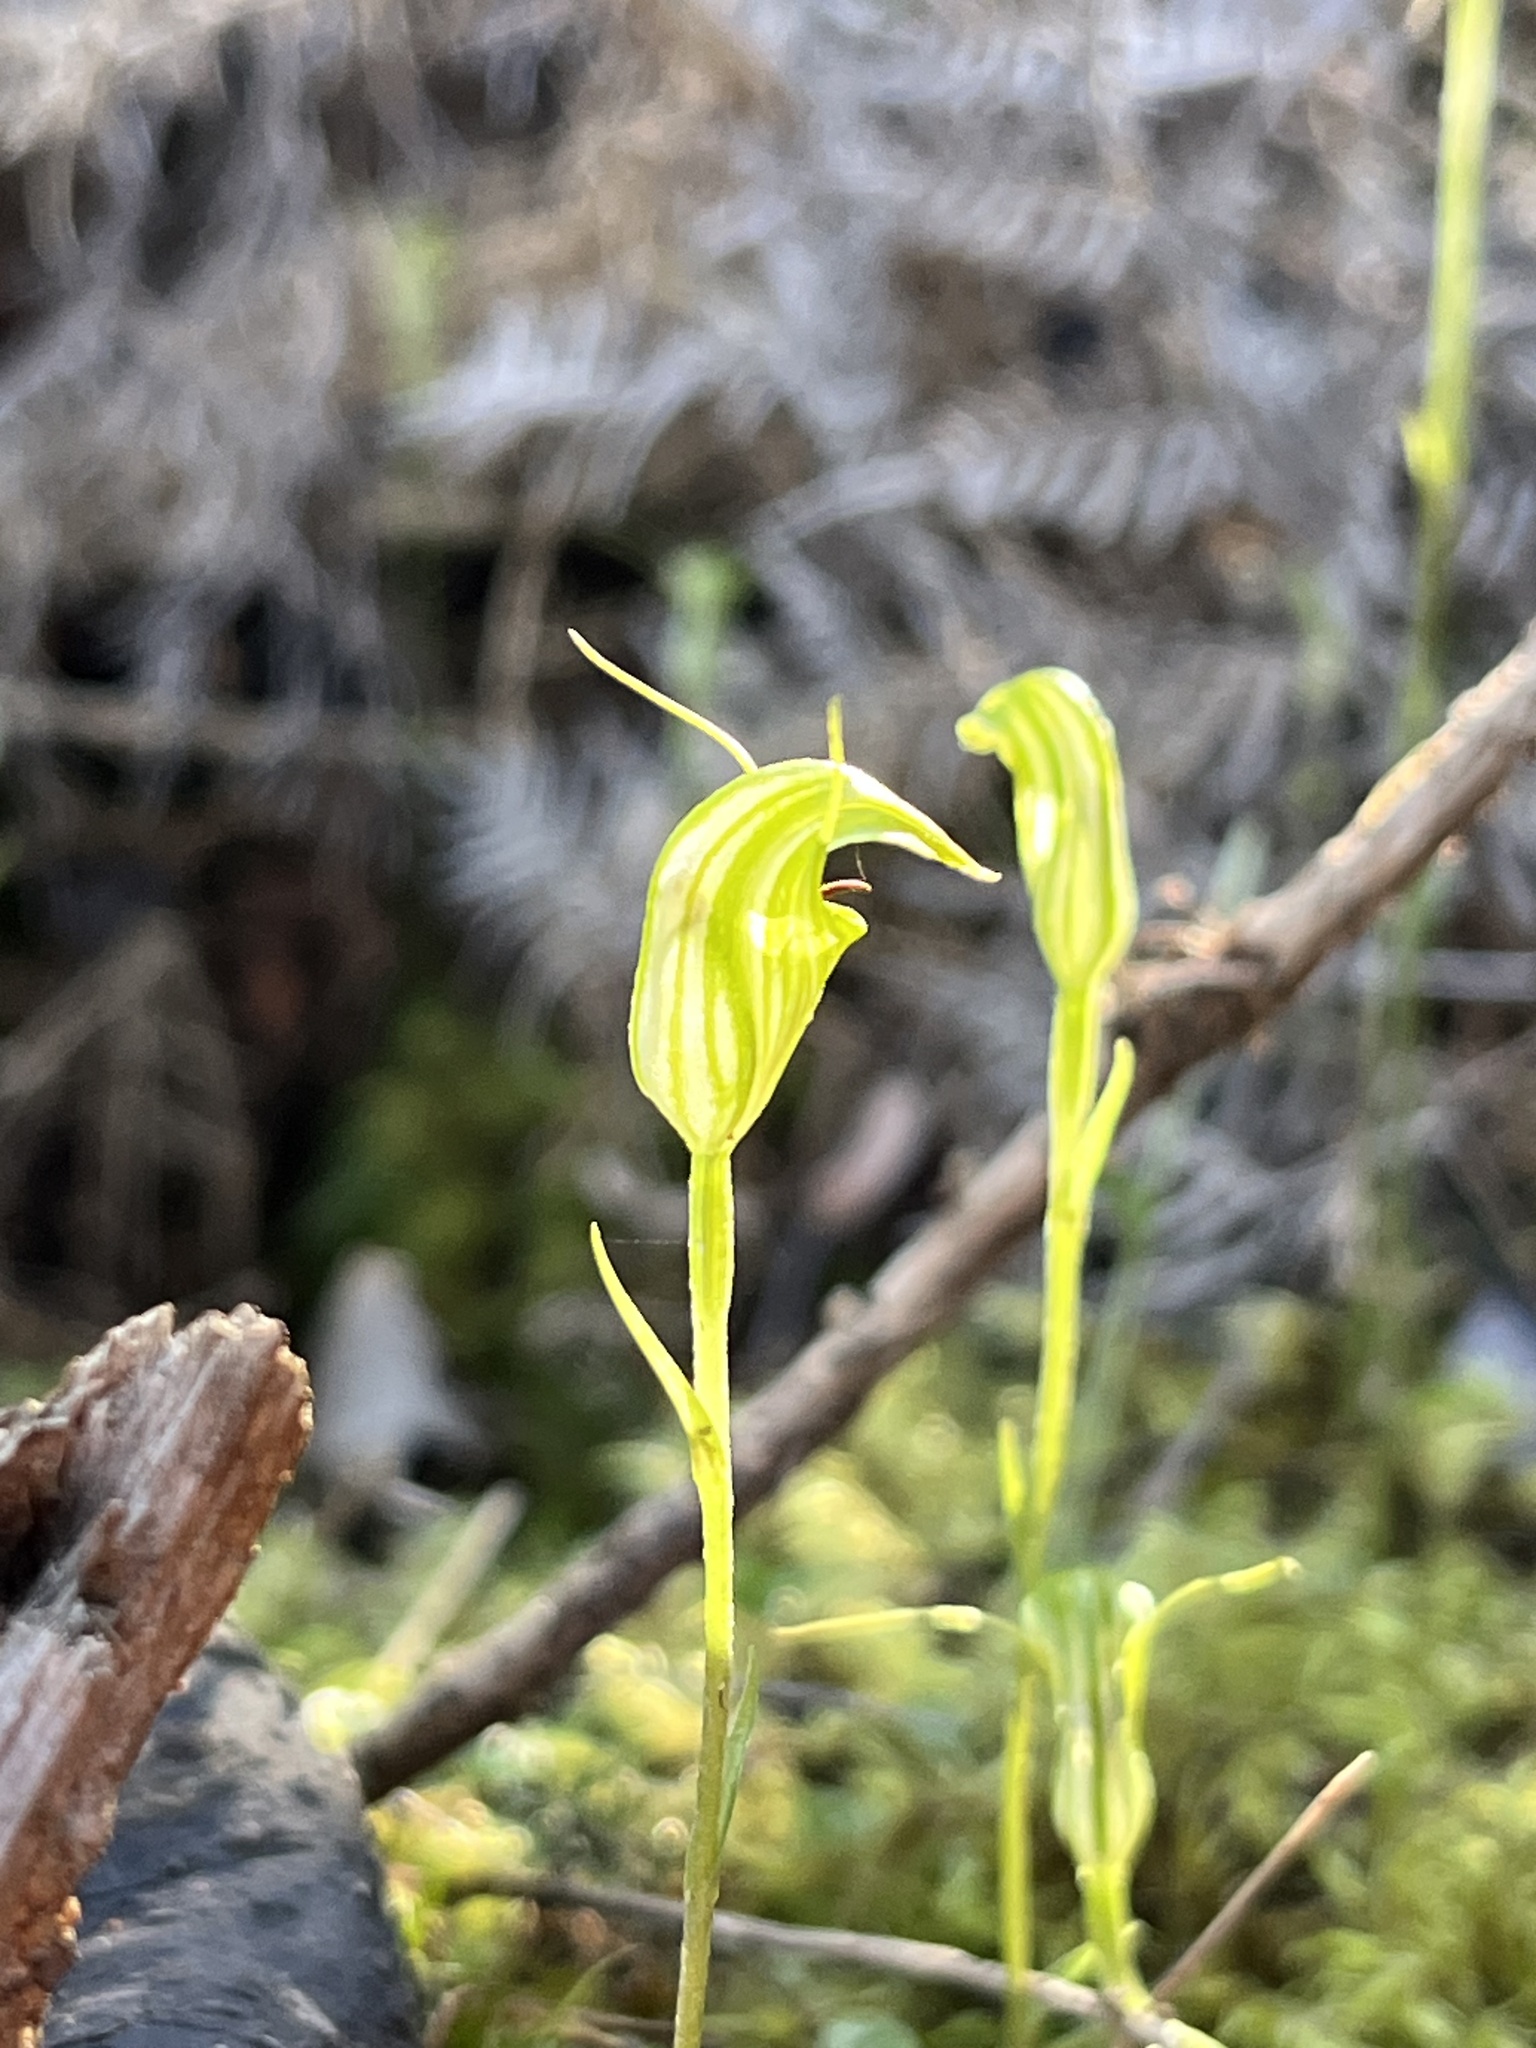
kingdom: Plantae
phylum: Tracheophyta
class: Liliopsida
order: Asparagales
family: Orchidaceae
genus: Pterostylis
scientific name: Pterostylis trullifolia
